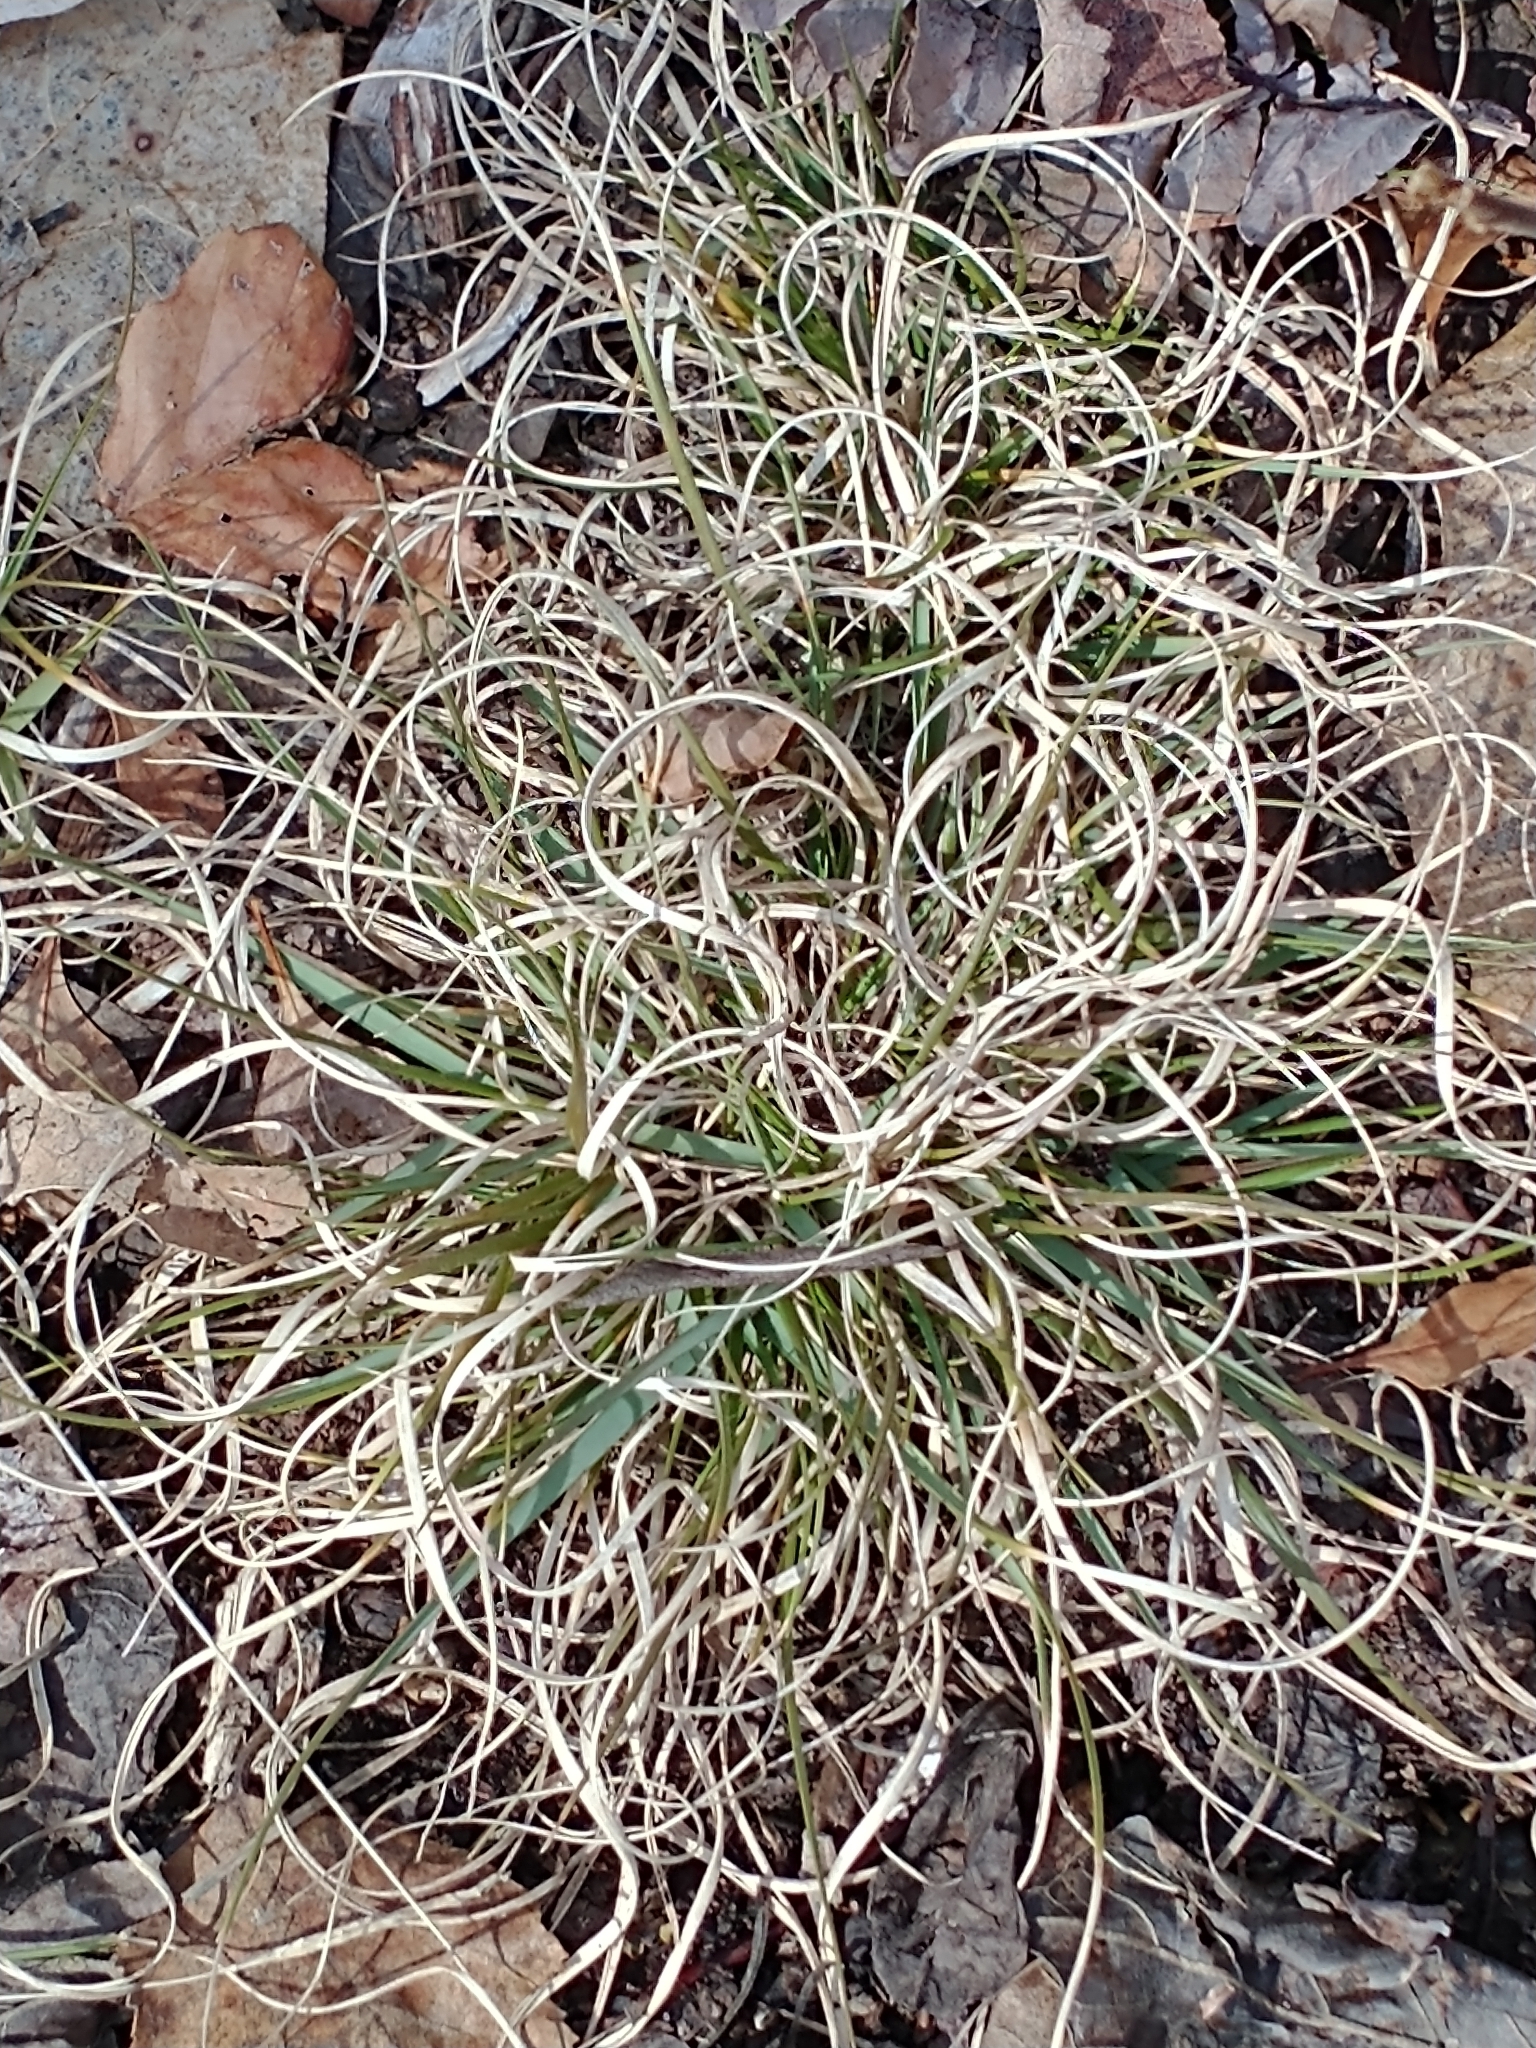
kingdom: Plantae
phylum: Tracheophyta
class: Liliopsida
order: Poales
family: Poaceae
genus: Danthonia
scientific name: Danthonia spicata
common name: Common wild oatgrass
